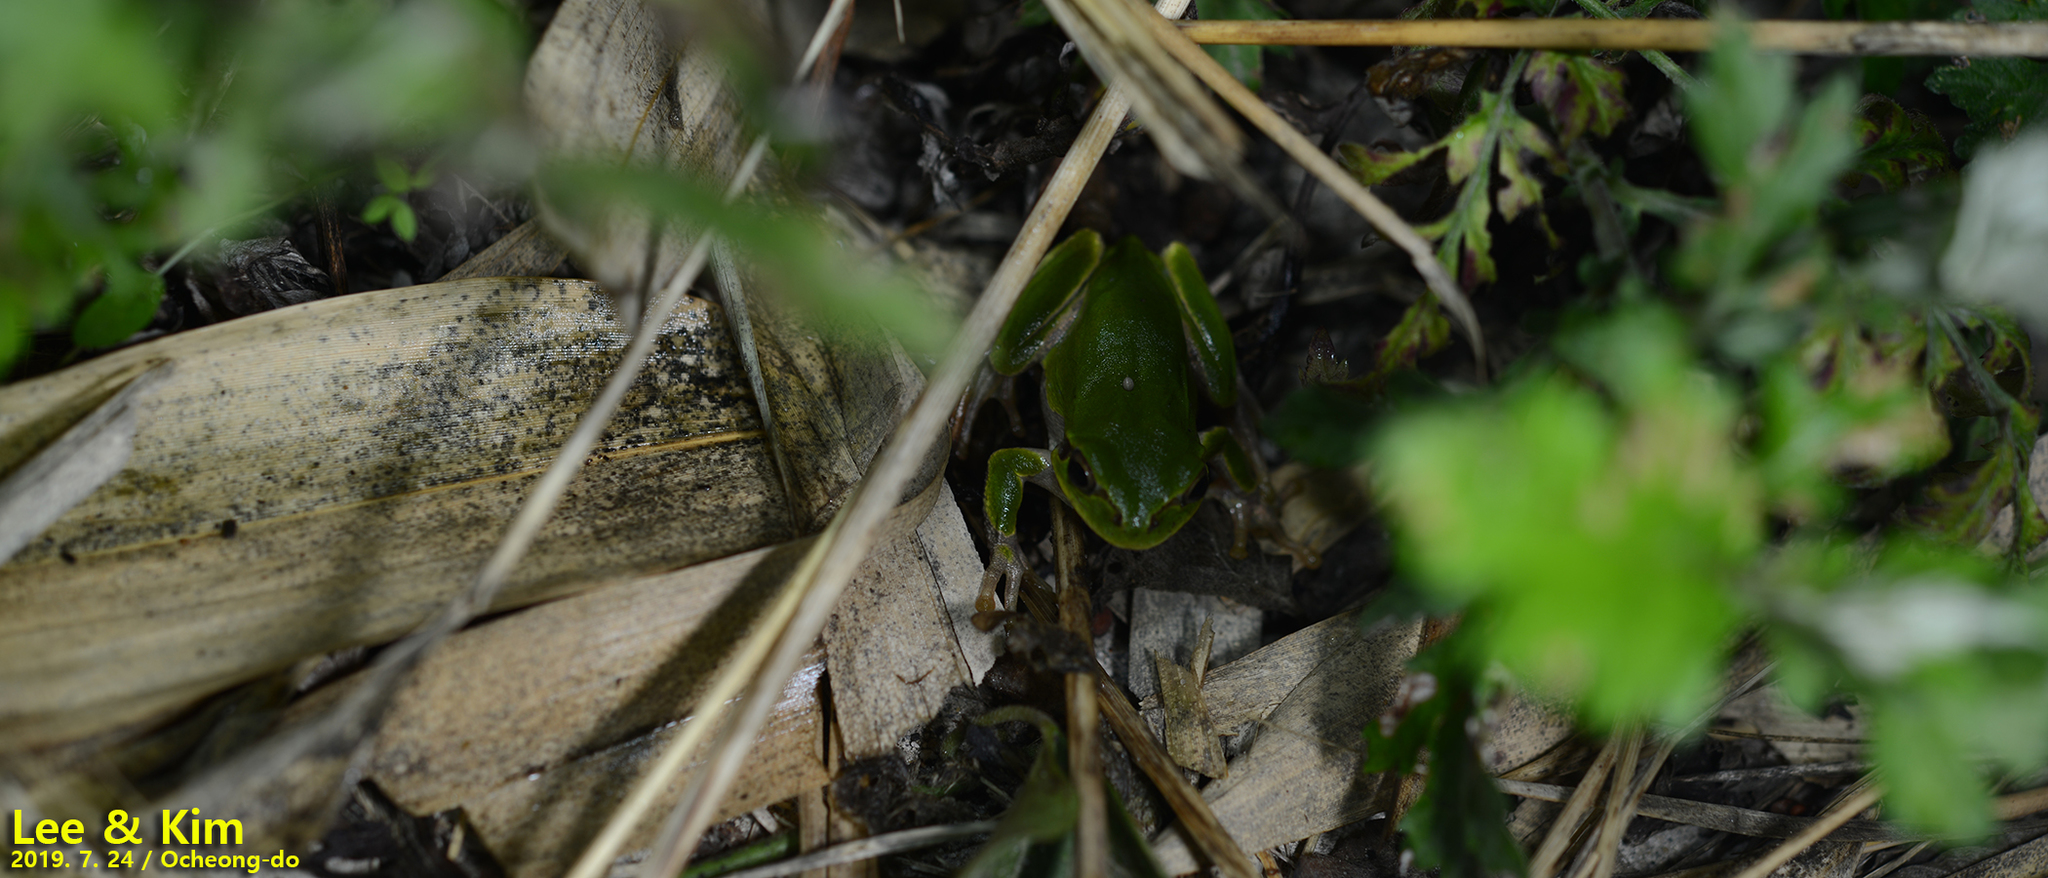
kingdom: Animalia
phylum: Chordata
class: Amphibia
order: Anura
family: Hylidae
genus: Dryophytes
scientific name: Dryophytes japonicus
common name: Japanese treefrog
